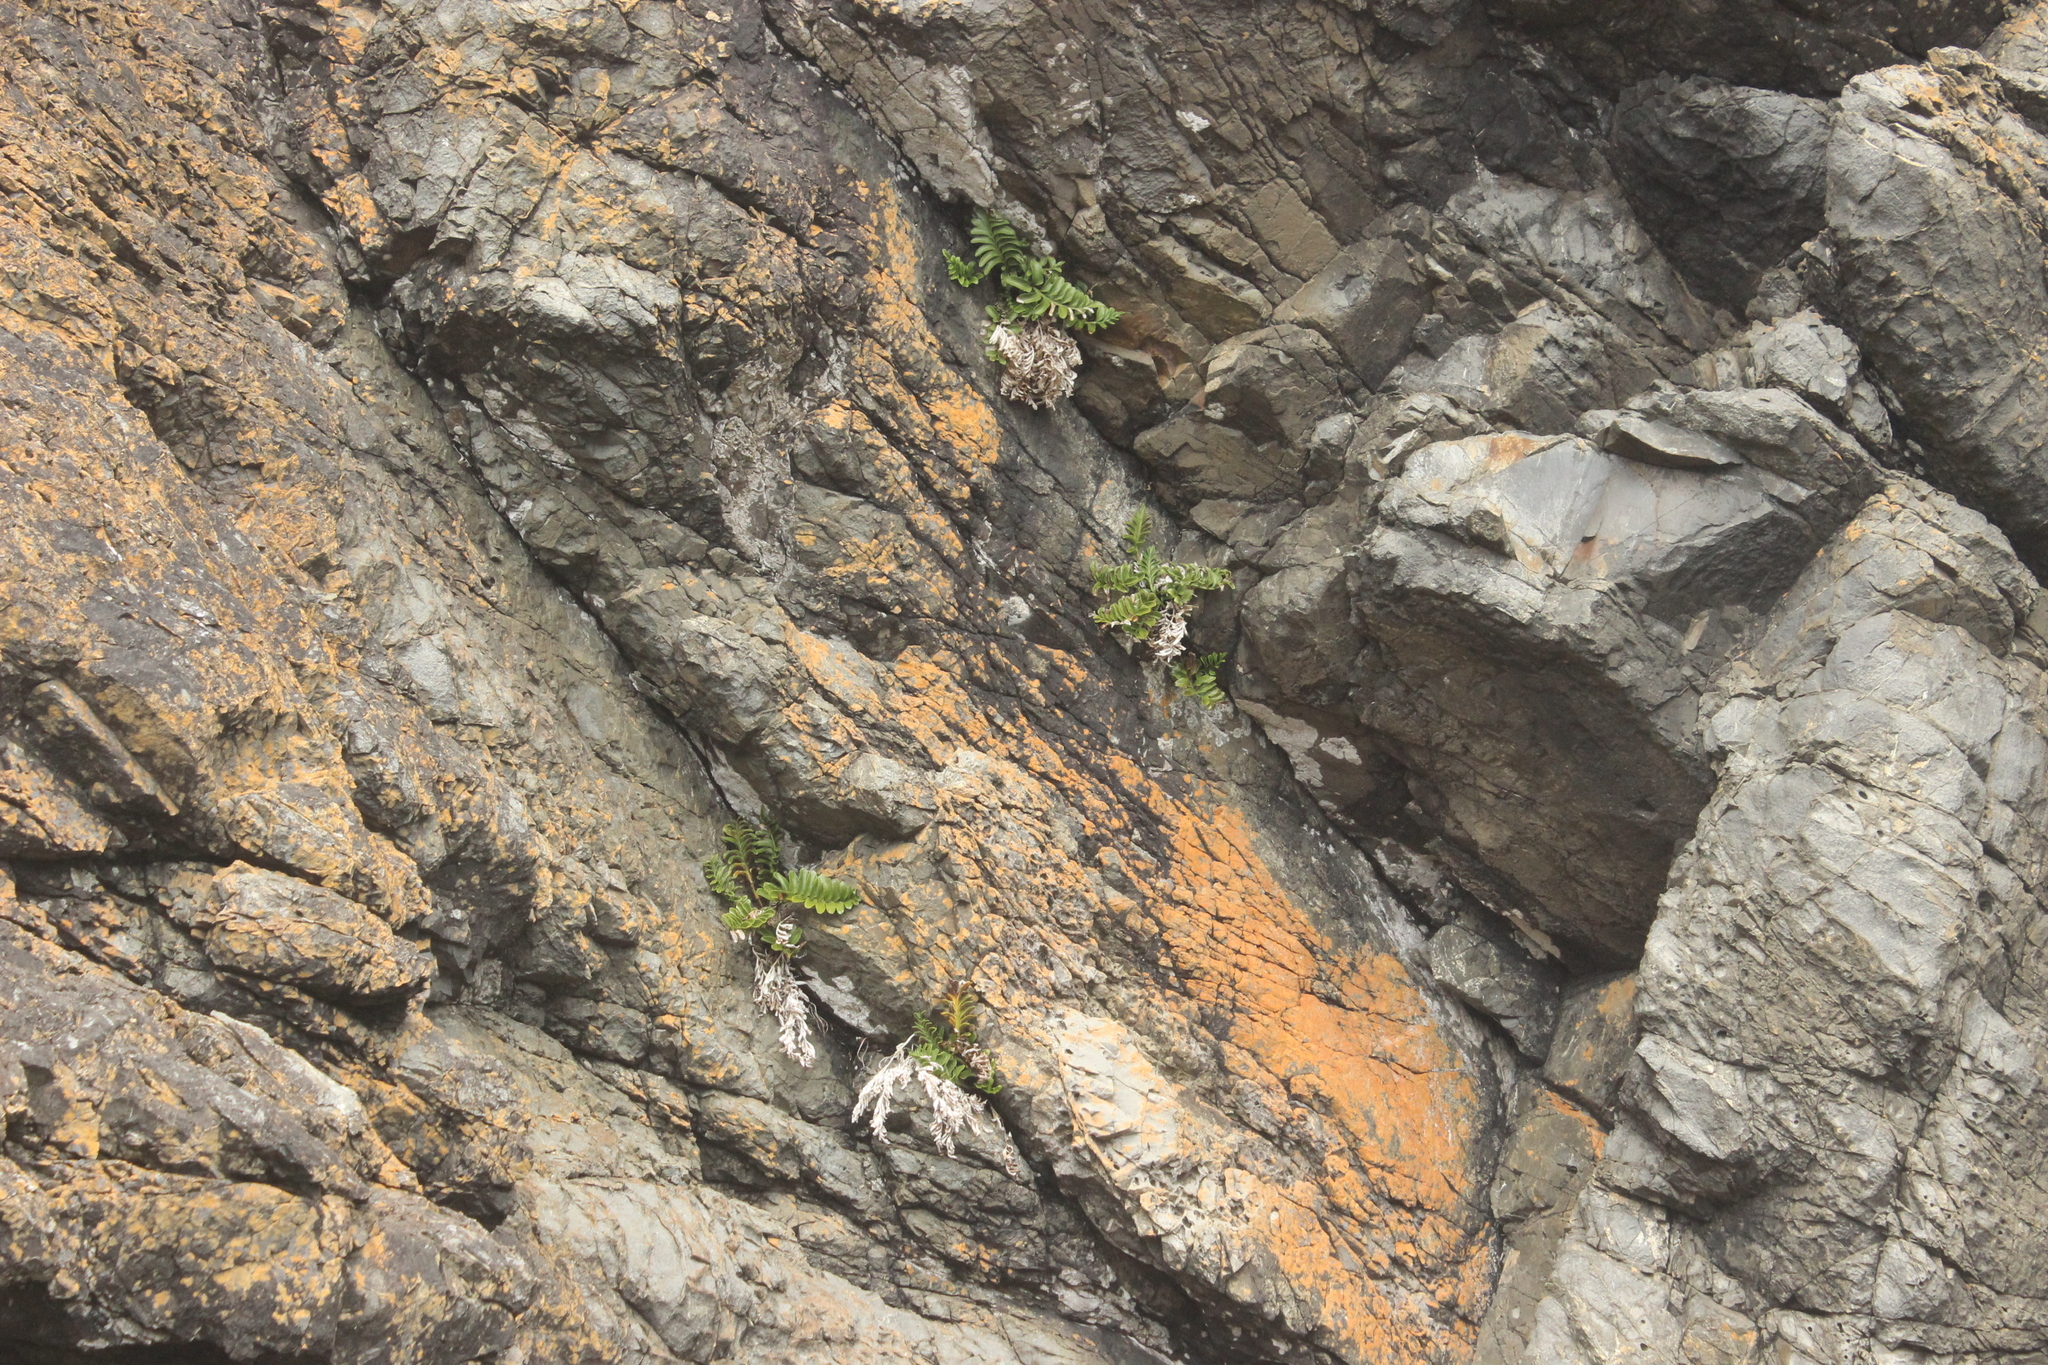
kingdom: Plantae
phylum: Tracheophyta
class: Polypodiopsida
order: Polypodiales
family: Aspleniaceae
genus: Asplenium
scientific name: Asplenium obtusatum
